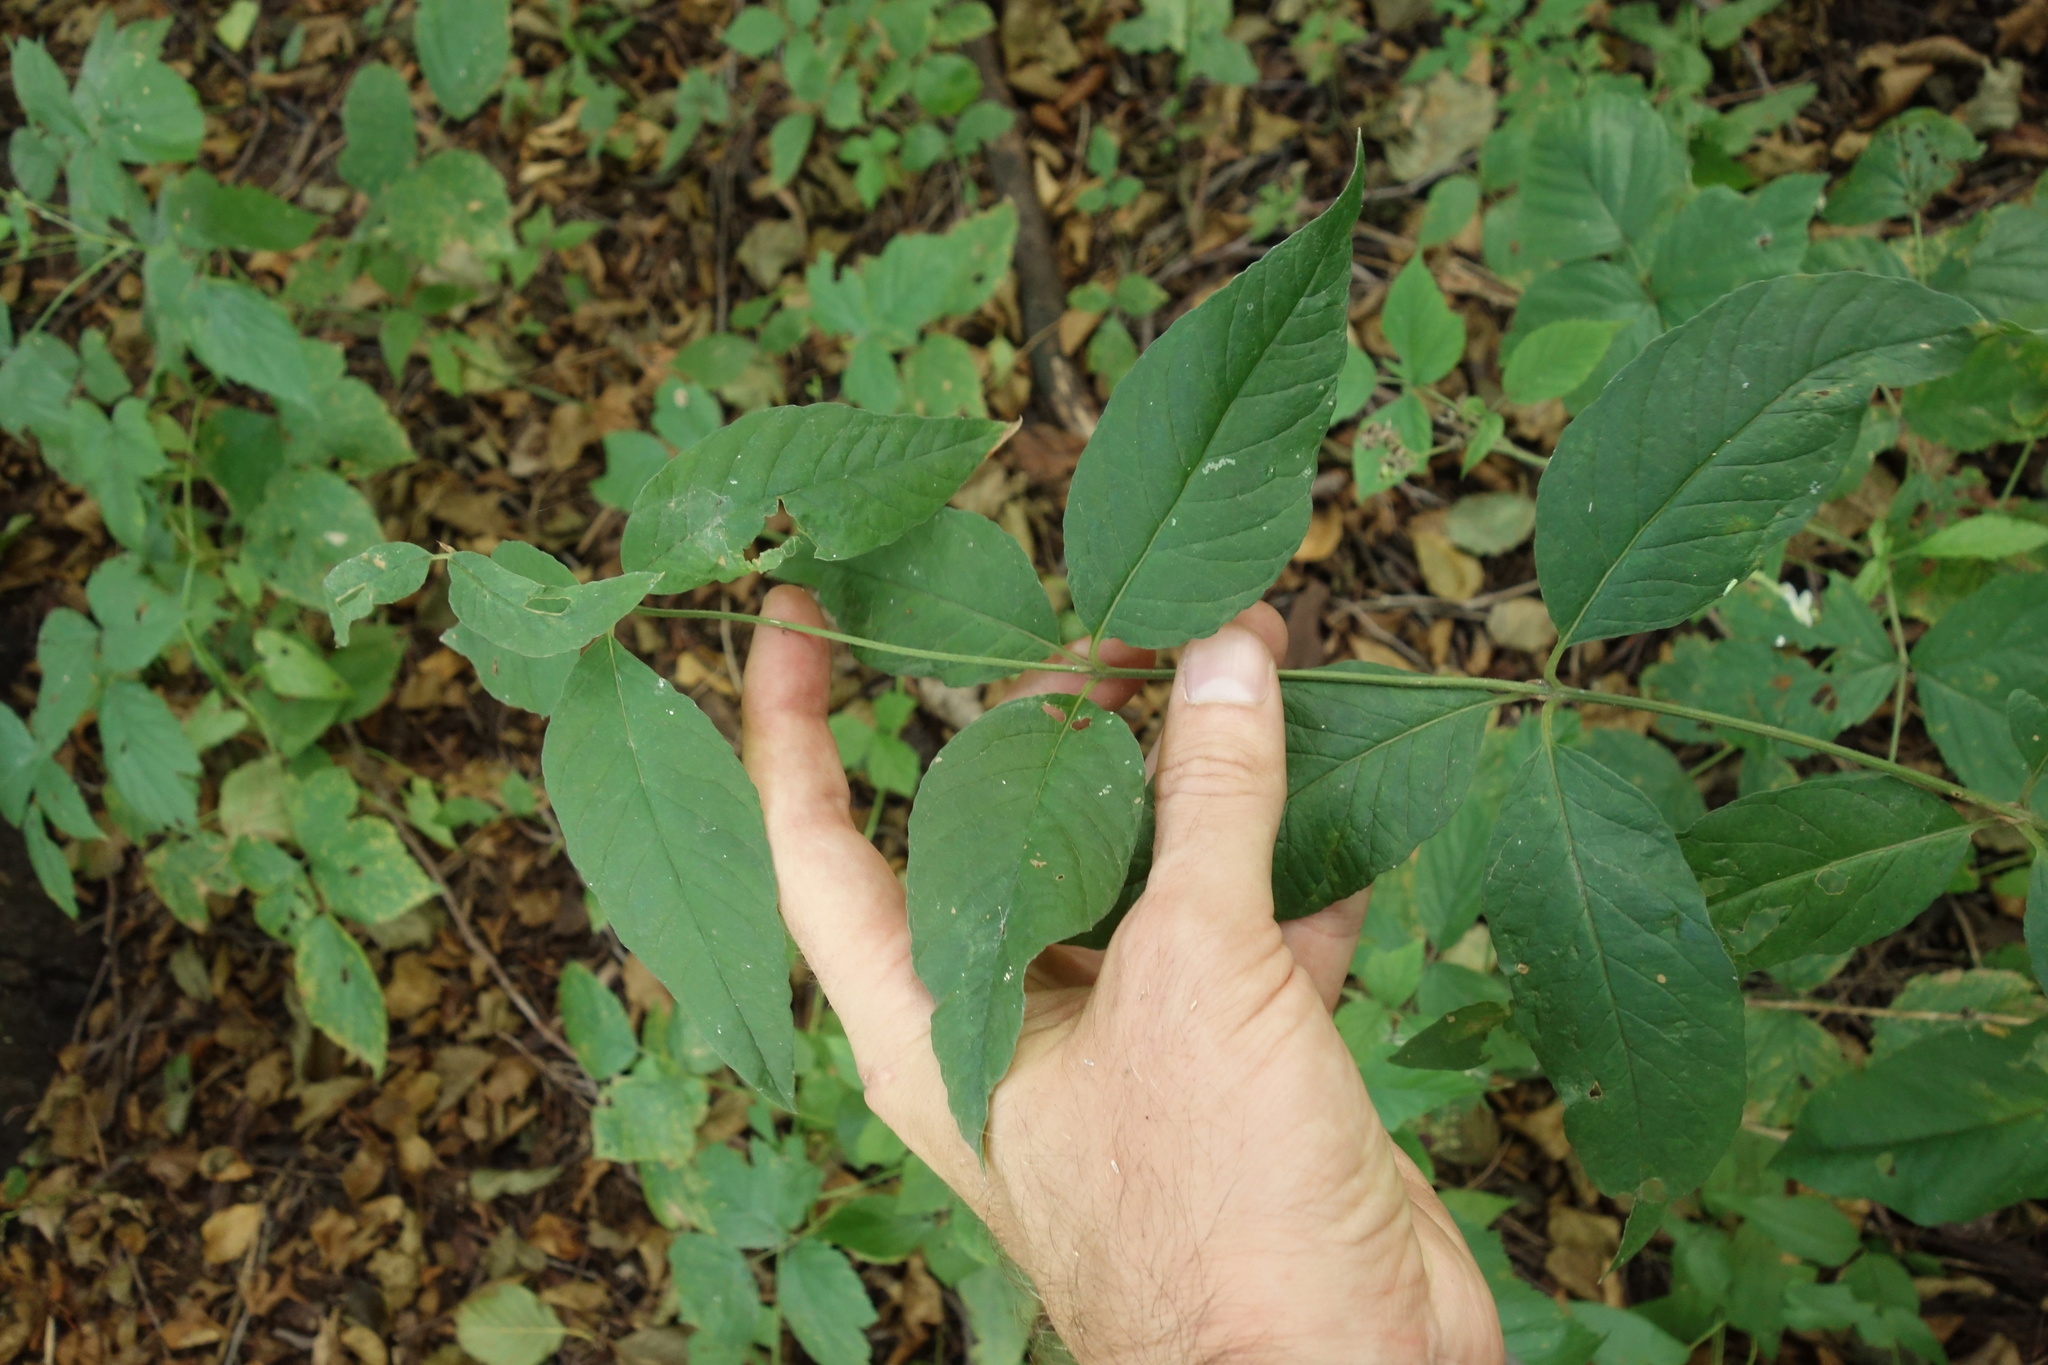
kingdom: Plantae
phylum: Tracheophyta
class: Magnoliopsida
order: Ericales
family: Primulaceae
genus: Lysimachia
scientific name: Lysimachia vulgaris
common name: Yellow loosestrife
